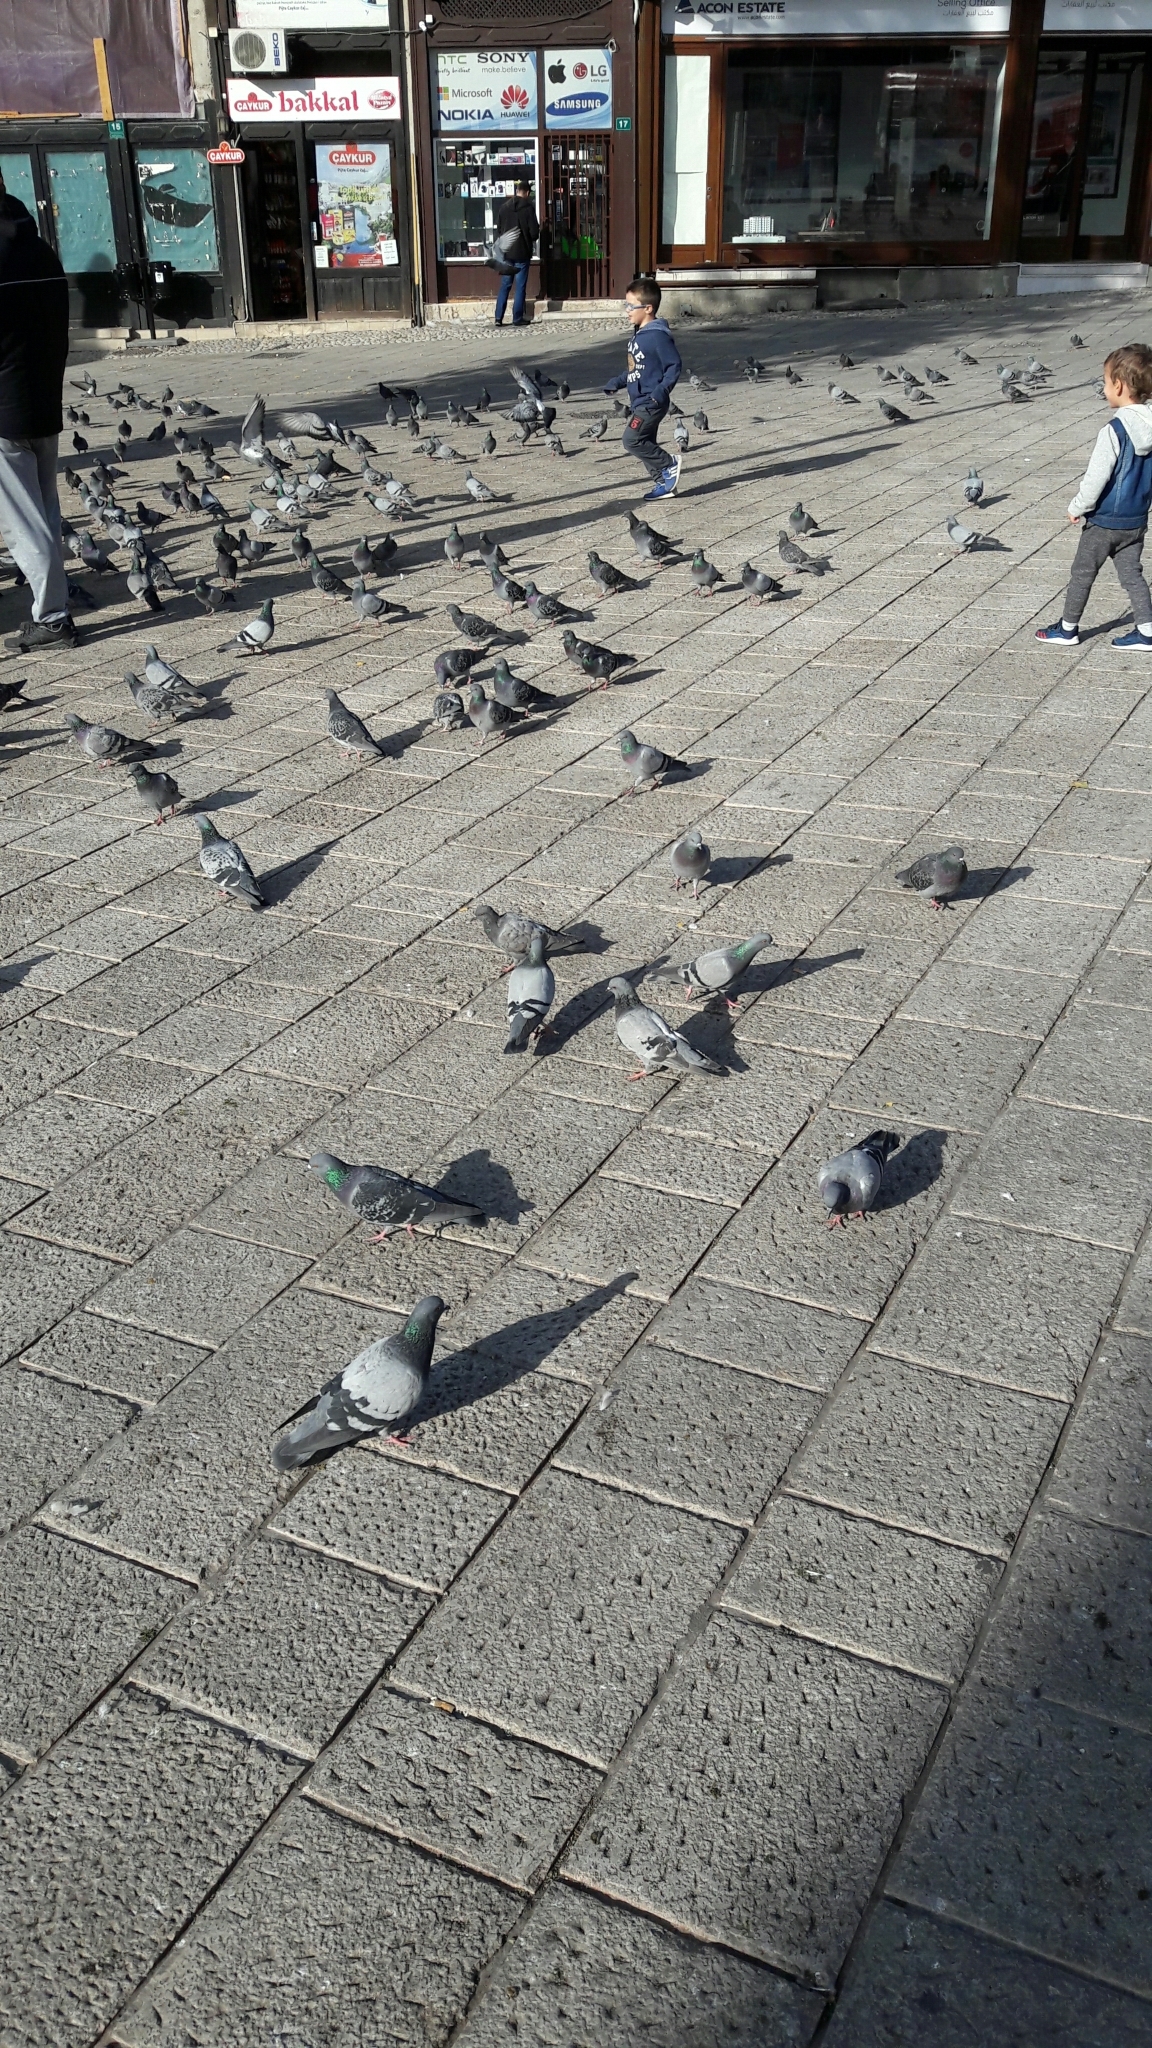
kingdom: Animalia
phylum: Chordata
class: Aves
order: Columbiformes
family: Columbidae
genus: Columba
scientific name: Columba livia
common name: Rock pigeon
